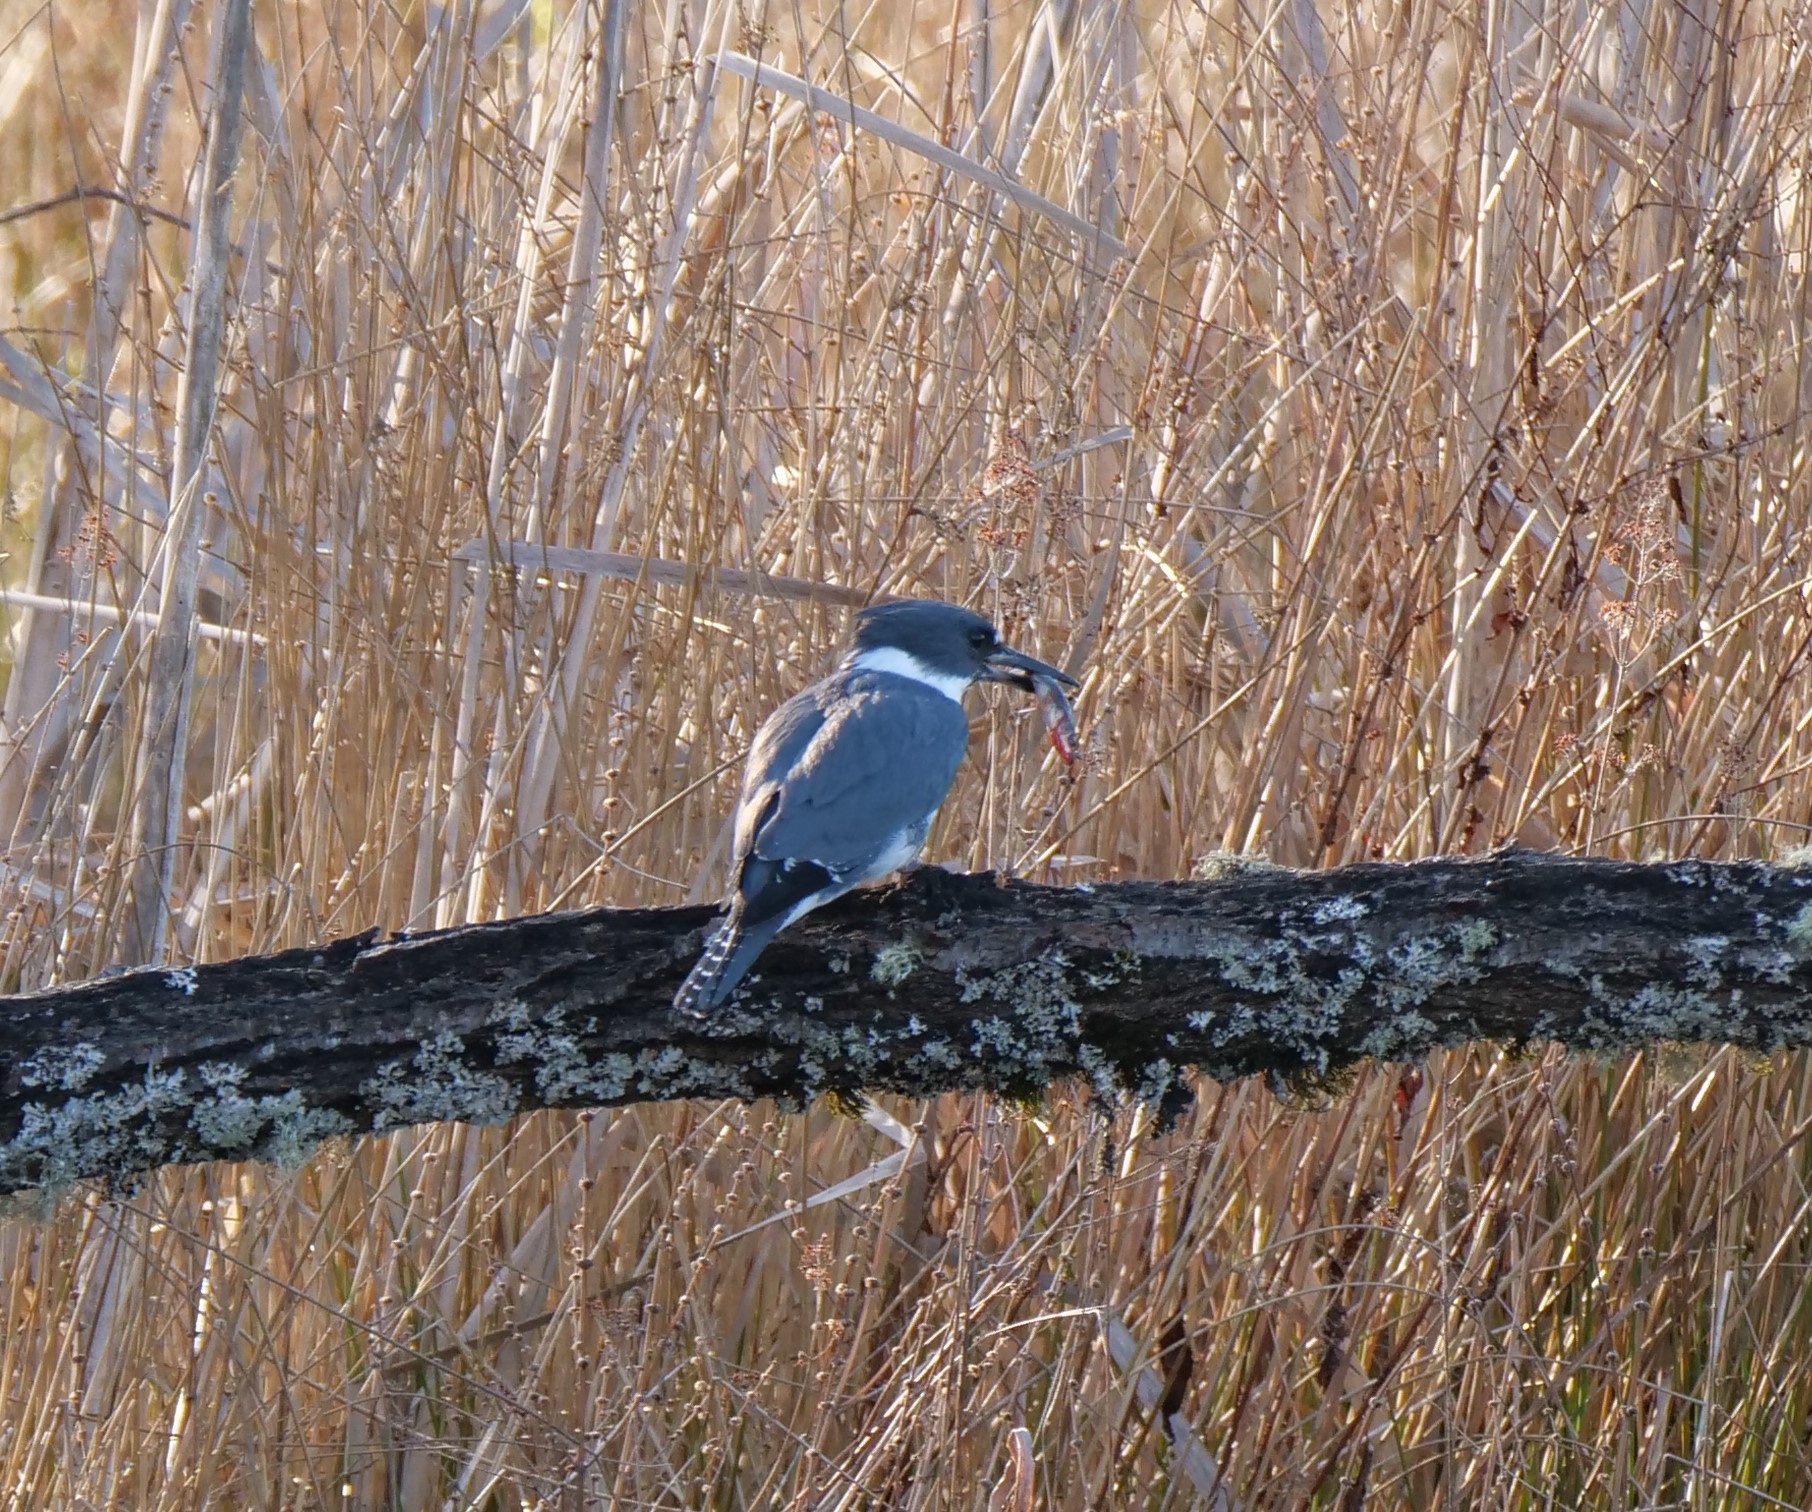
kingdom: Animalia
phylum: Chordata
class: Aves
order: Coraciiformes
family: Alcedinidae
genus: Megaceryle
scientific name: Megaceryle alcyon
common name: Belted kingfisher
